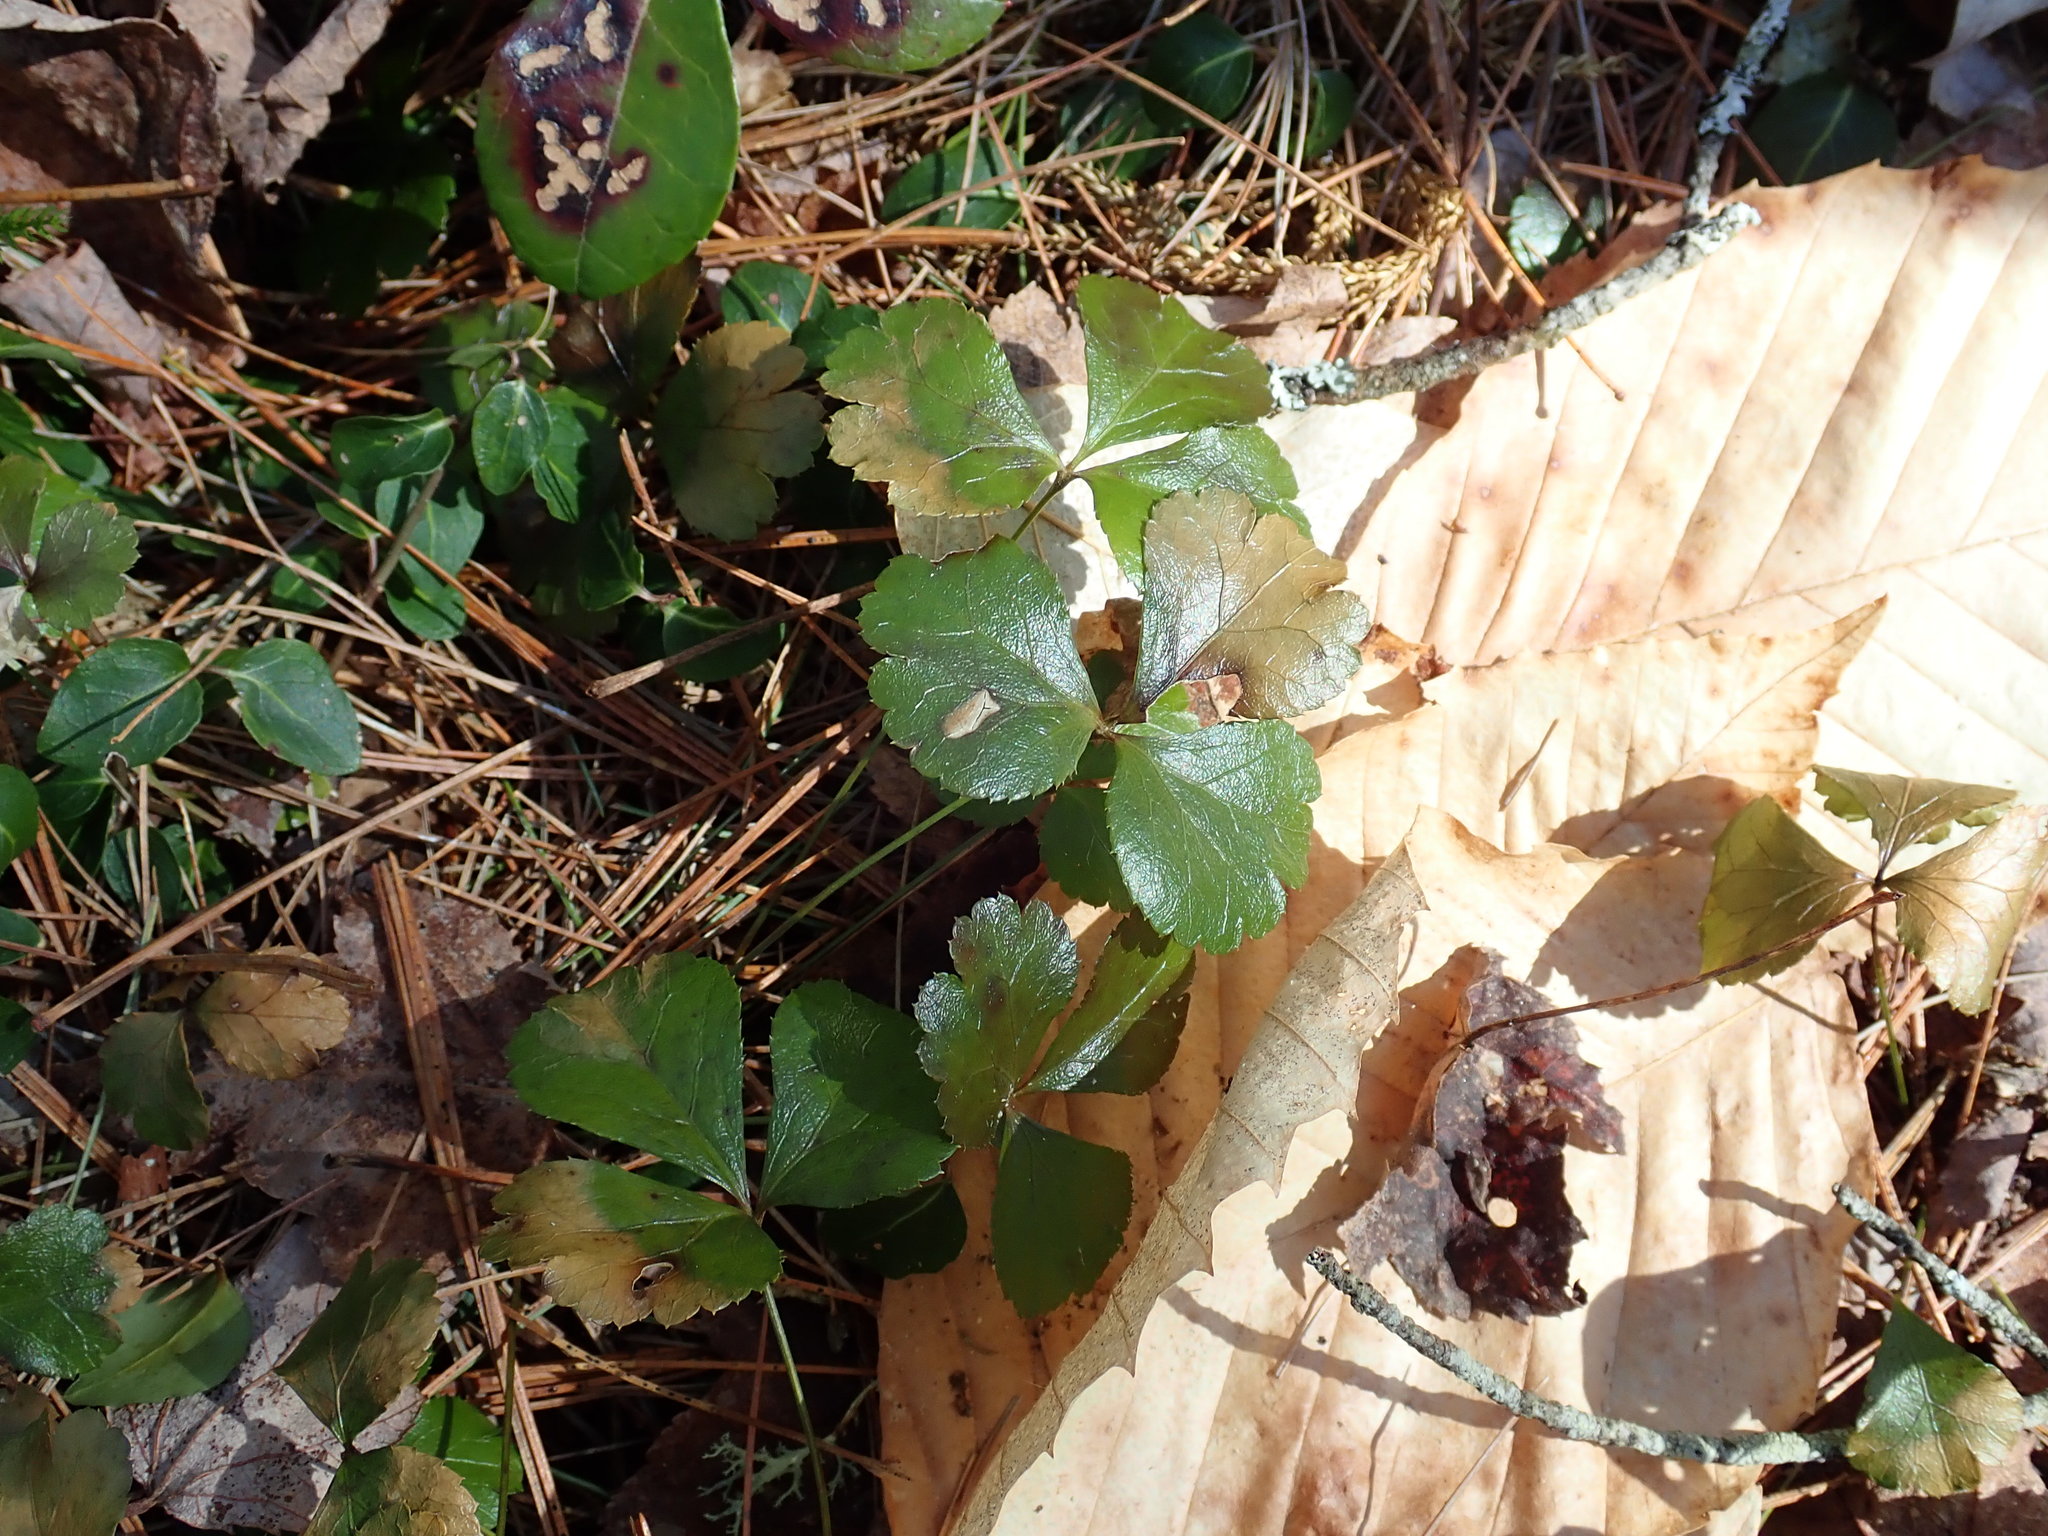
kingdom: Plantae
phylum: Tracheophyta
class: Magnoliopsida
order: Ranunculales
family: Ranunculaceae
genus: Coptis
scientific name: Coptis trifolia
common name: Canker-root
